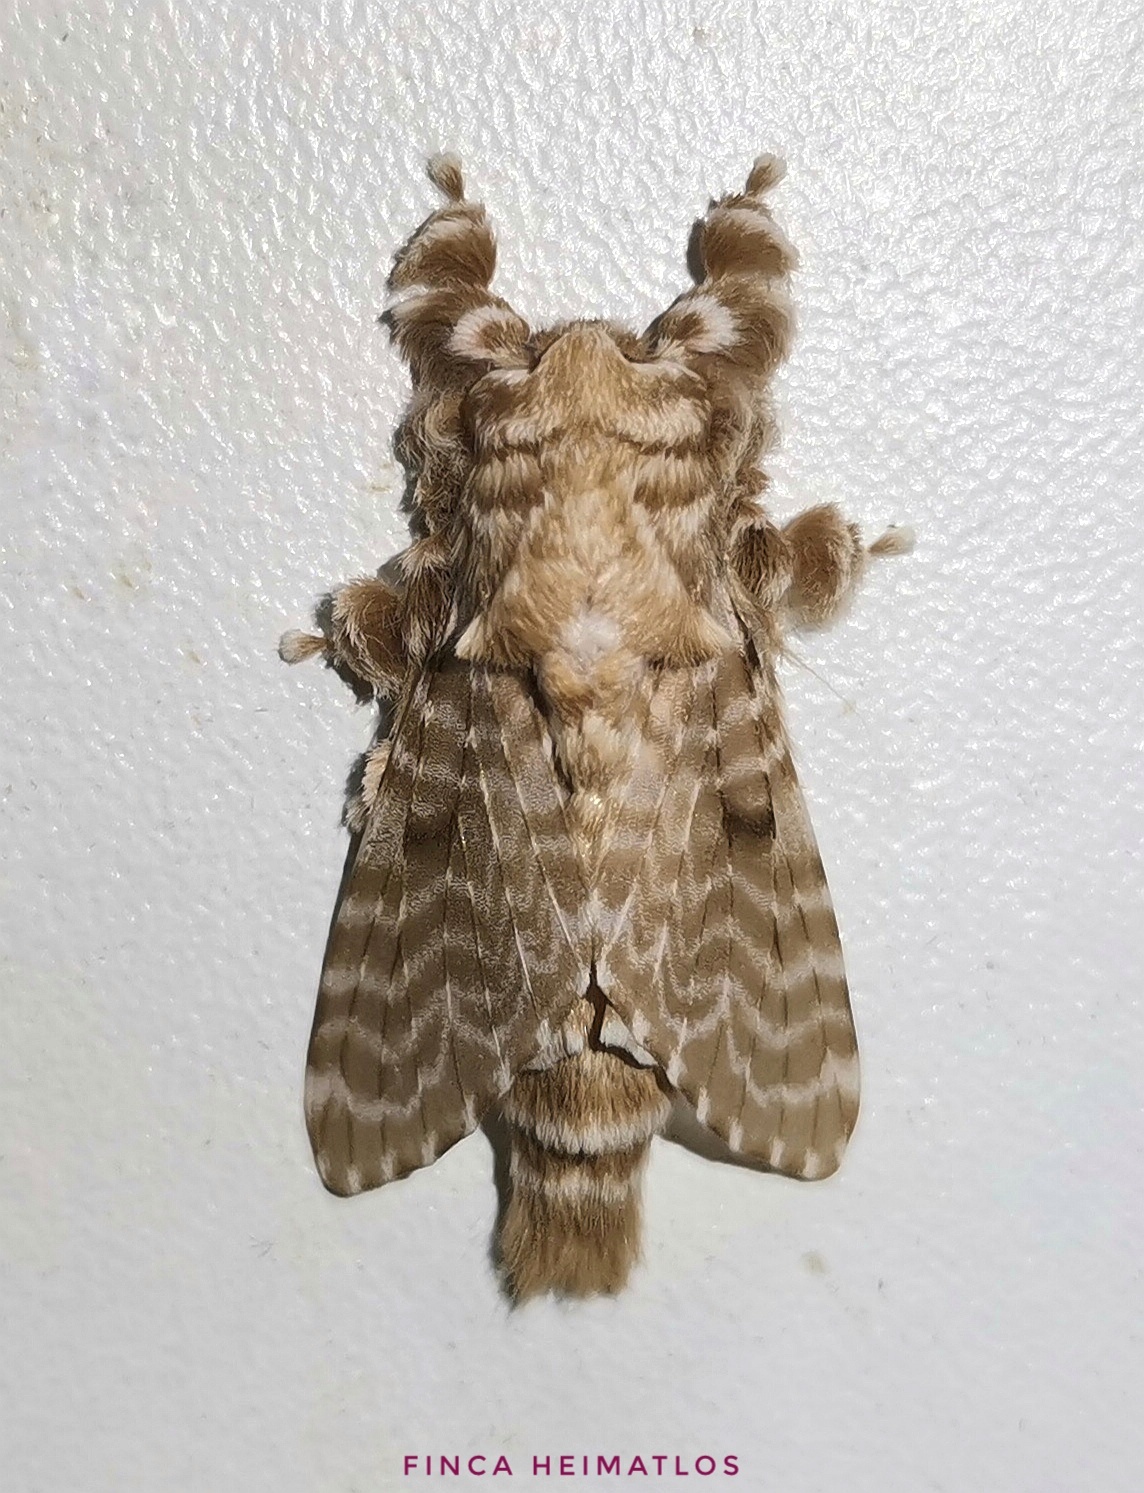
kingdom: Animalia
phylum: Arthropoda
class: Insecta
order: Lepidoptera
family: Lasiocampidae
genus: Tytocha
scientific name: Tytocha lineata
